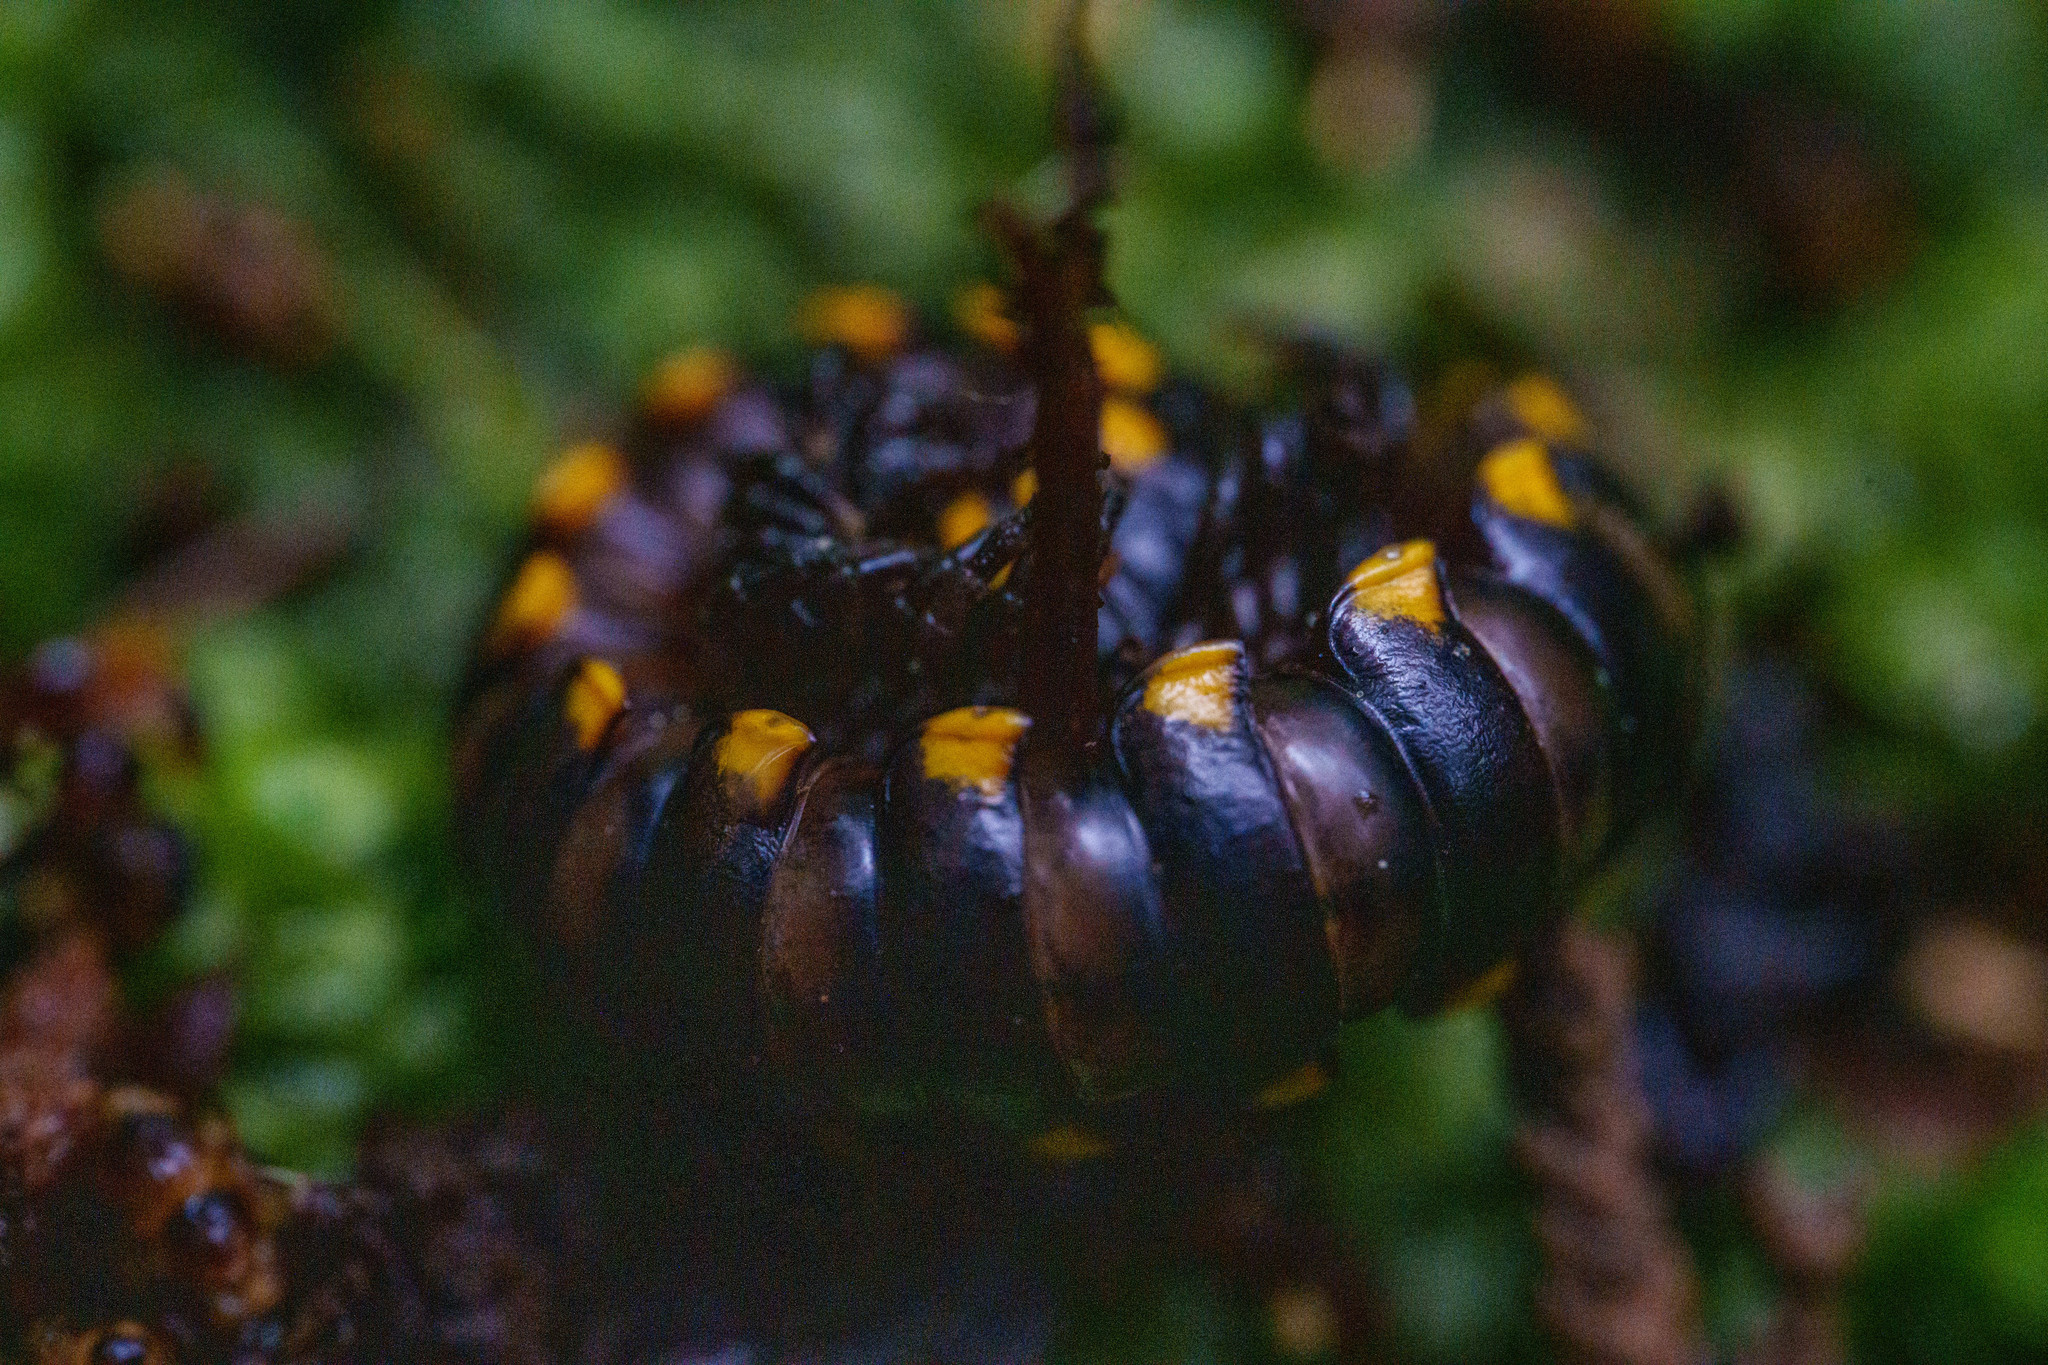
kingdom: Animalia
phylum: Arthropoda
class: Diplopoda
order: Polydesmida
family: Xystodesmidae
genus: Harpaphe
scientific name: Harpaphe haydeniana
